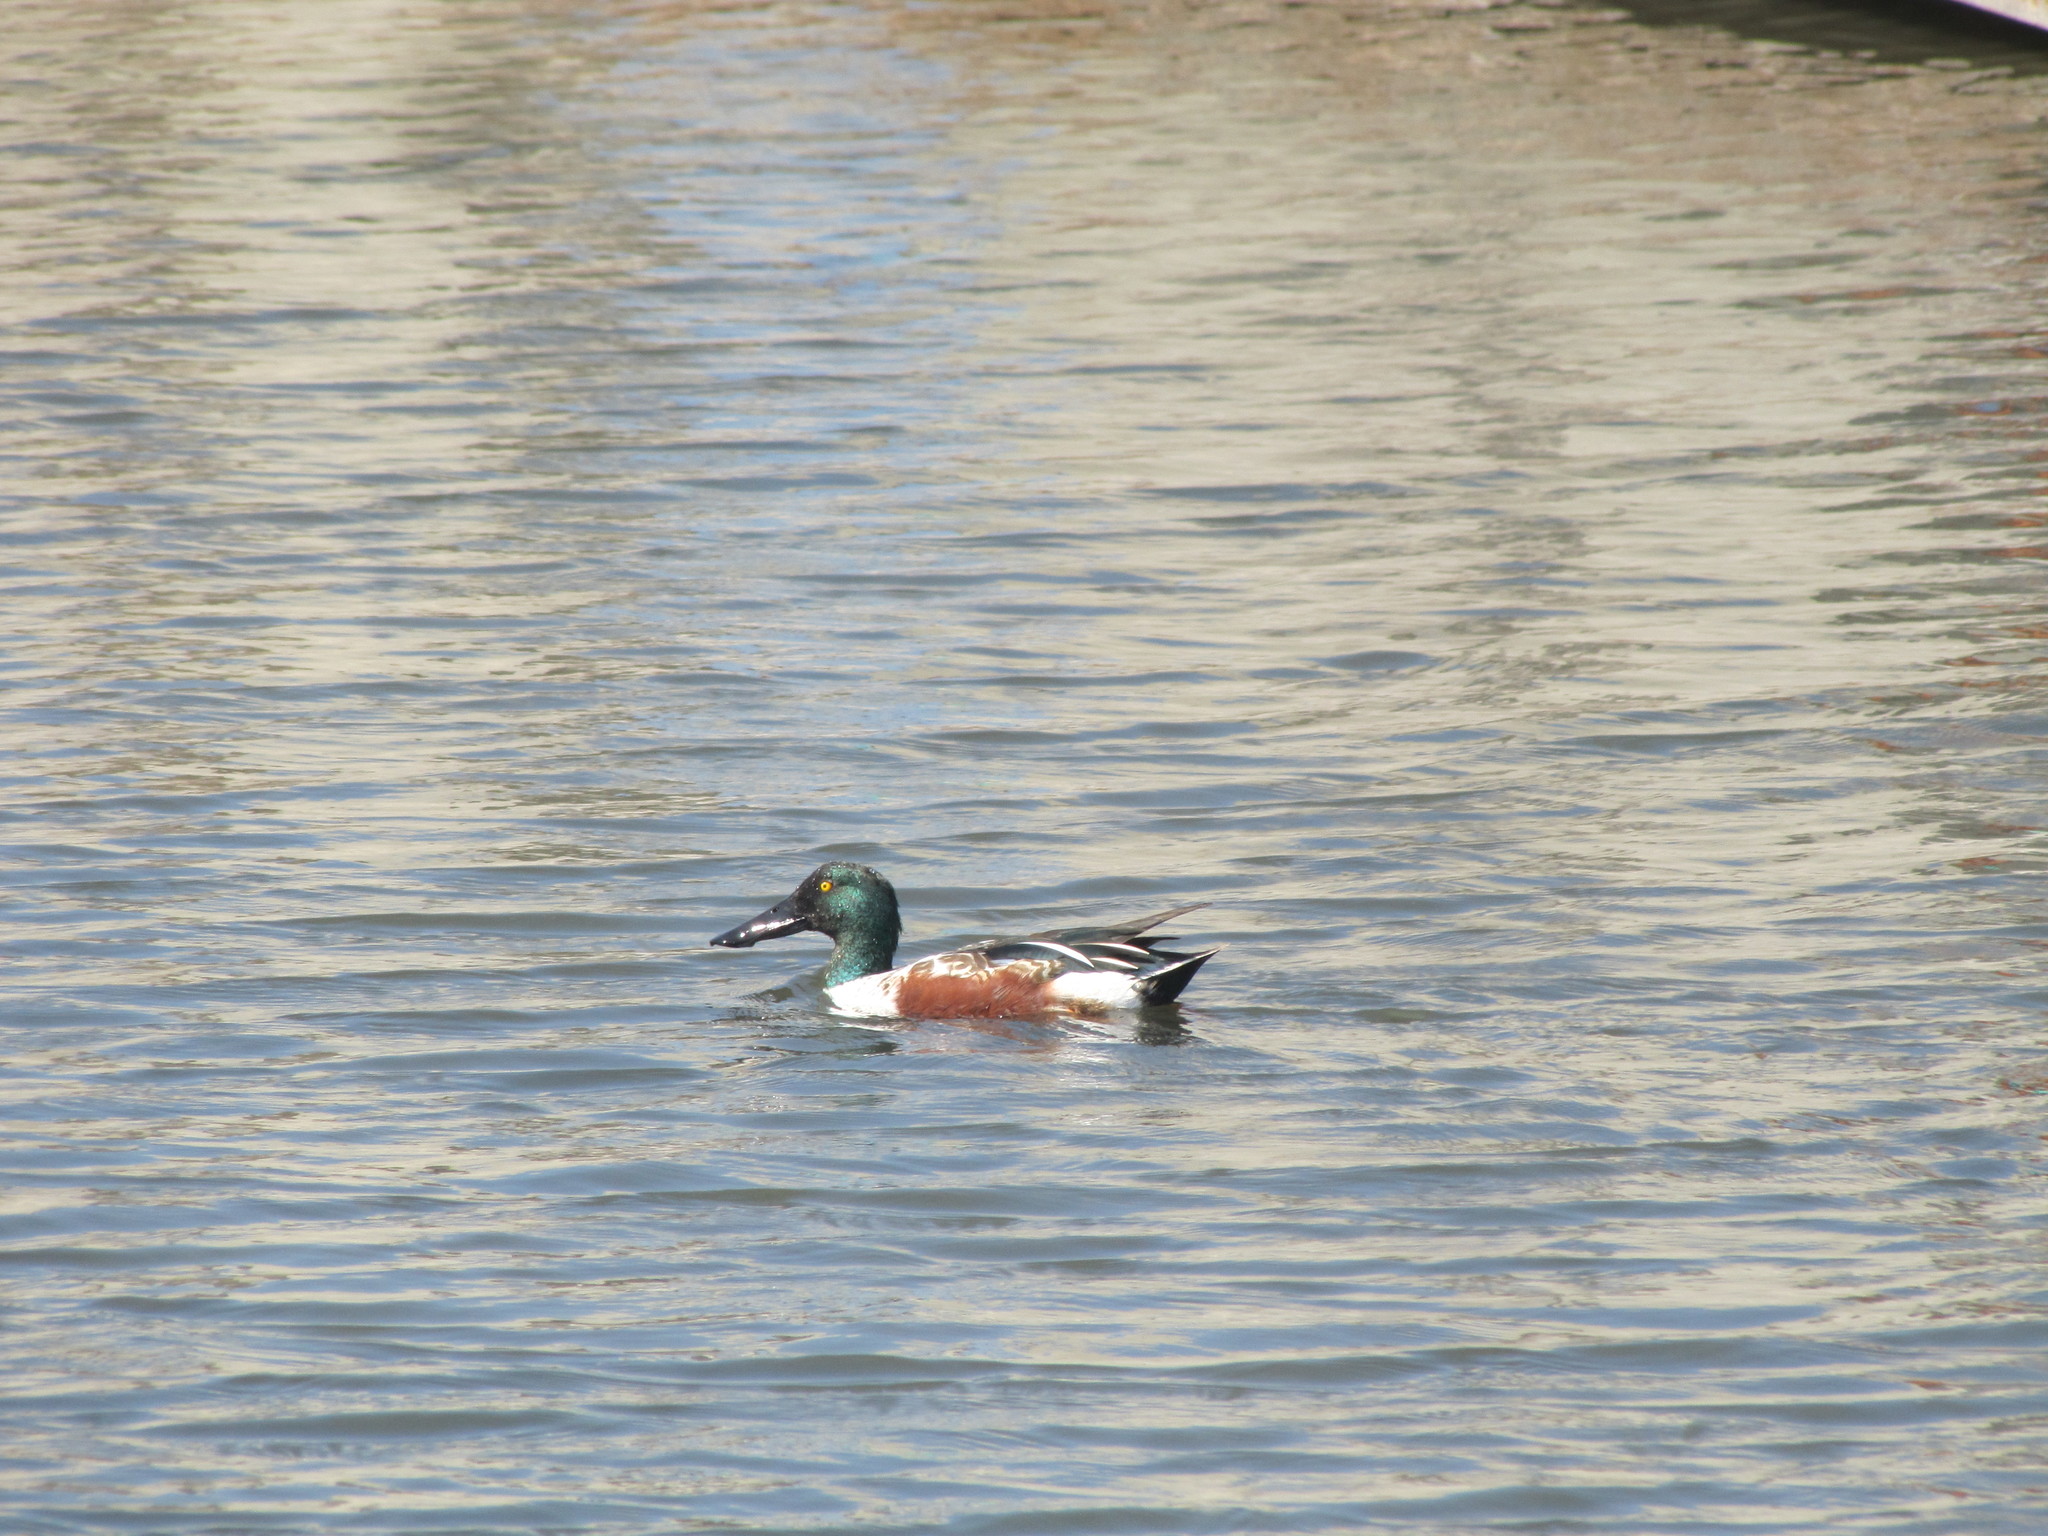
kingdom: Animalia
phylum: Chordata
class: Aves
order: Anseriformes
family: Anatidae
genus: Spatula
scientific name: Spatula clypeata
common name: Northern shoveler
